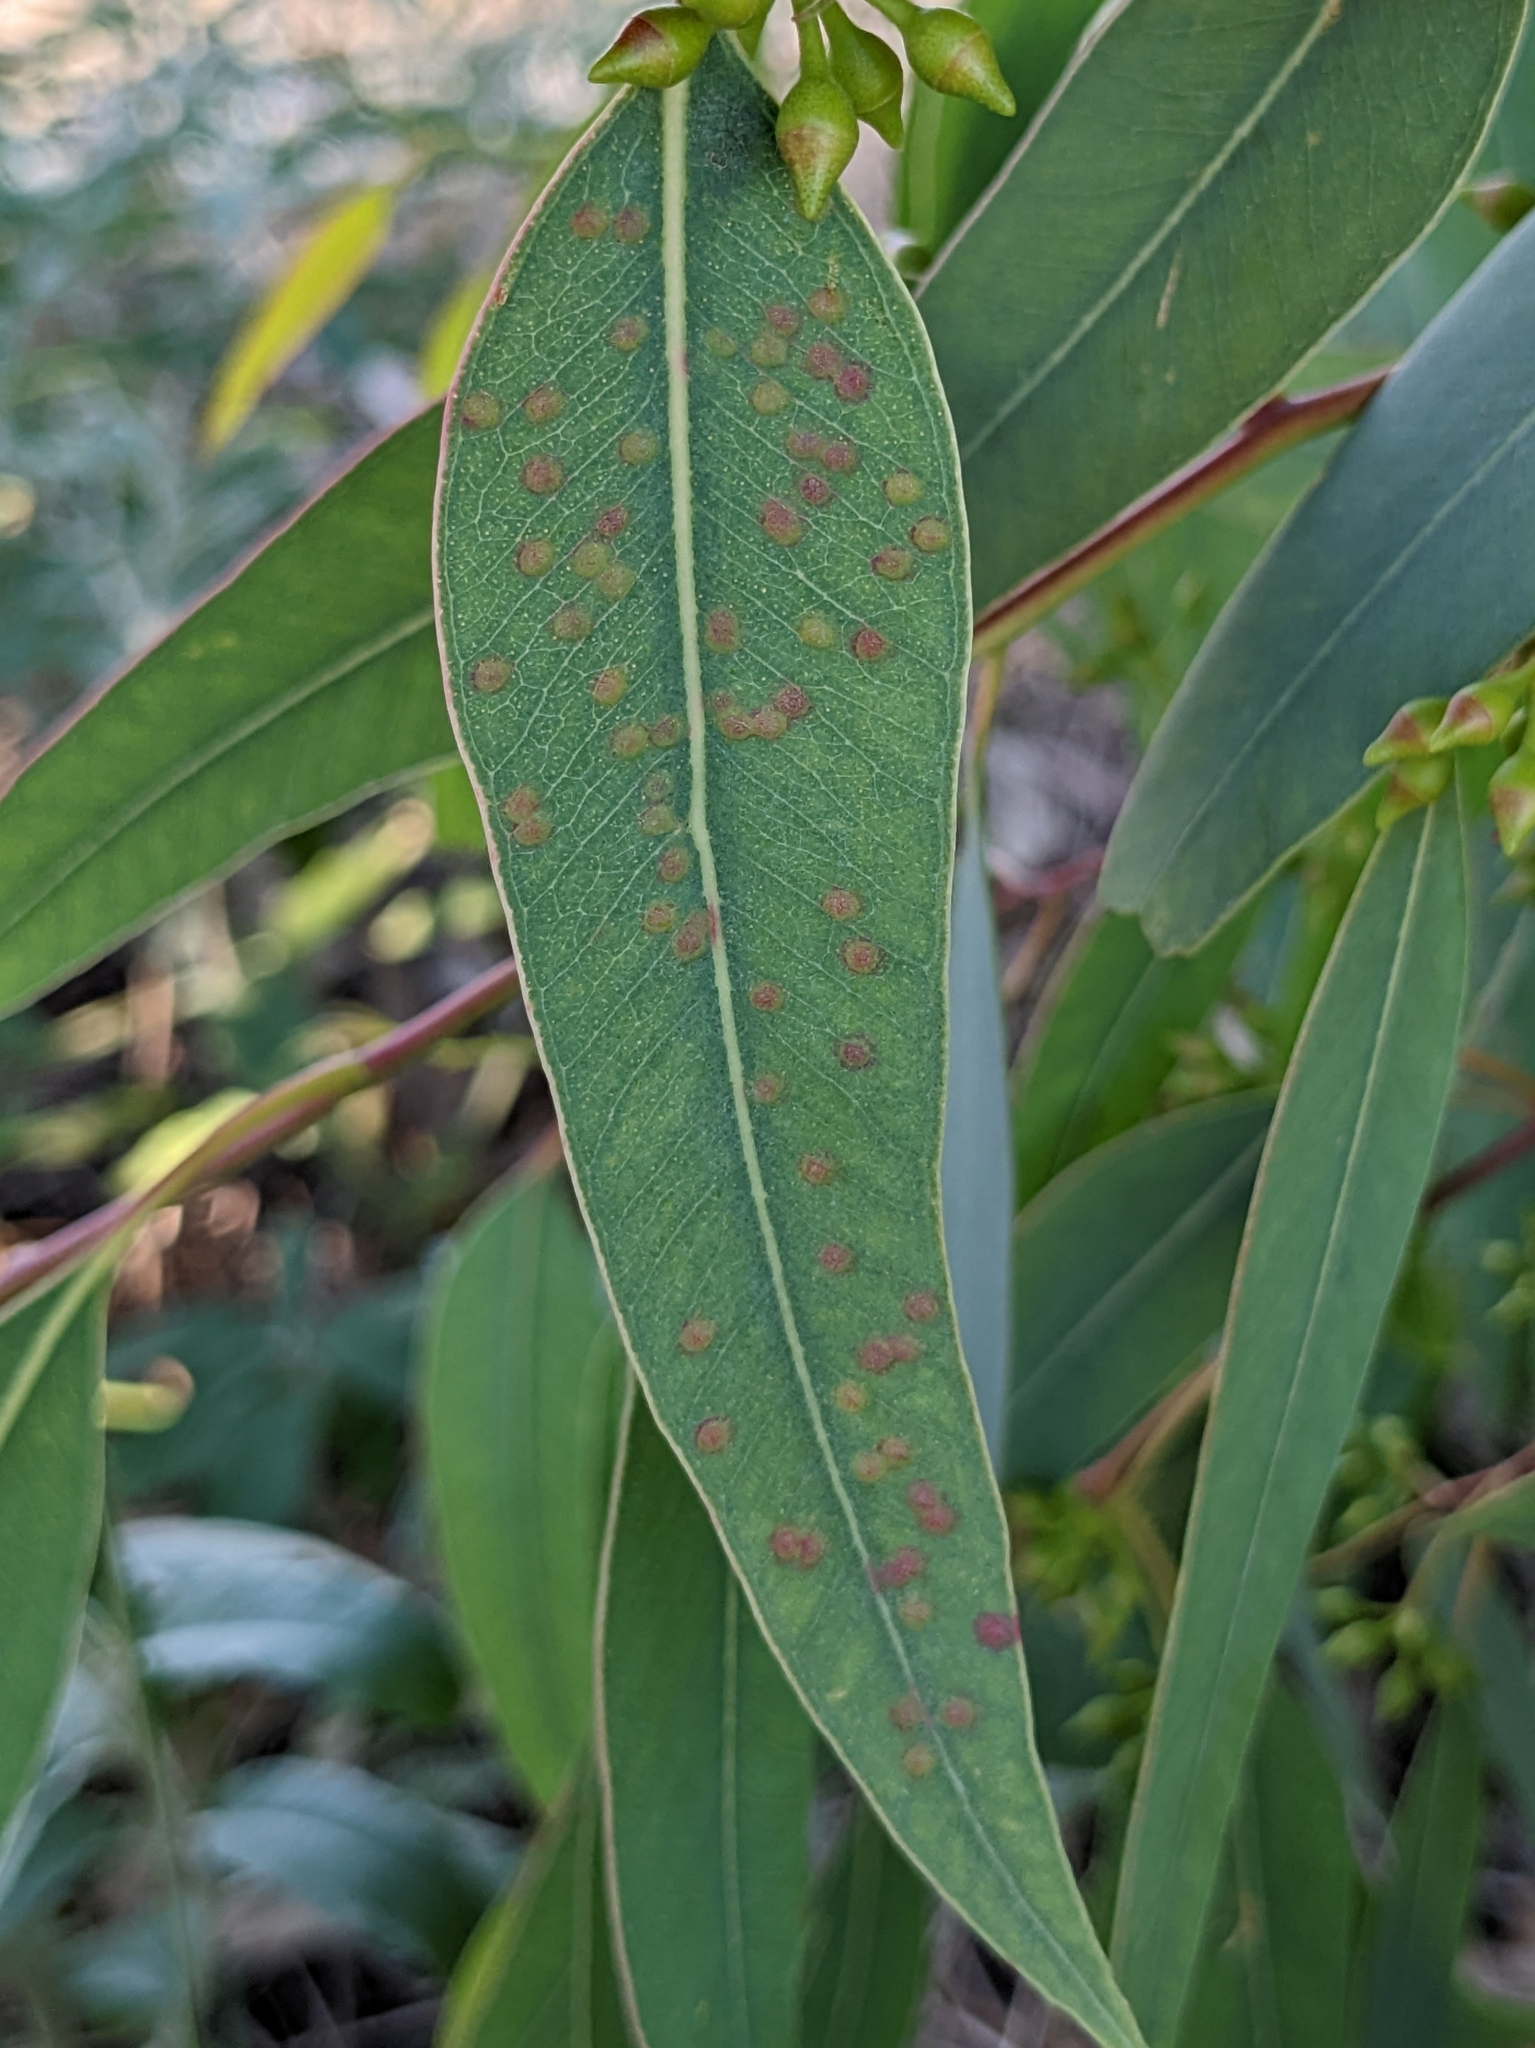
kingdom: Animalia
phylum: Arthropoda
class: Insecta
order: Hymenoptera
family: Eulophidae
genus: Ophelimus
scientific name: Ophelimus maskelli
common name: Gall wasp
